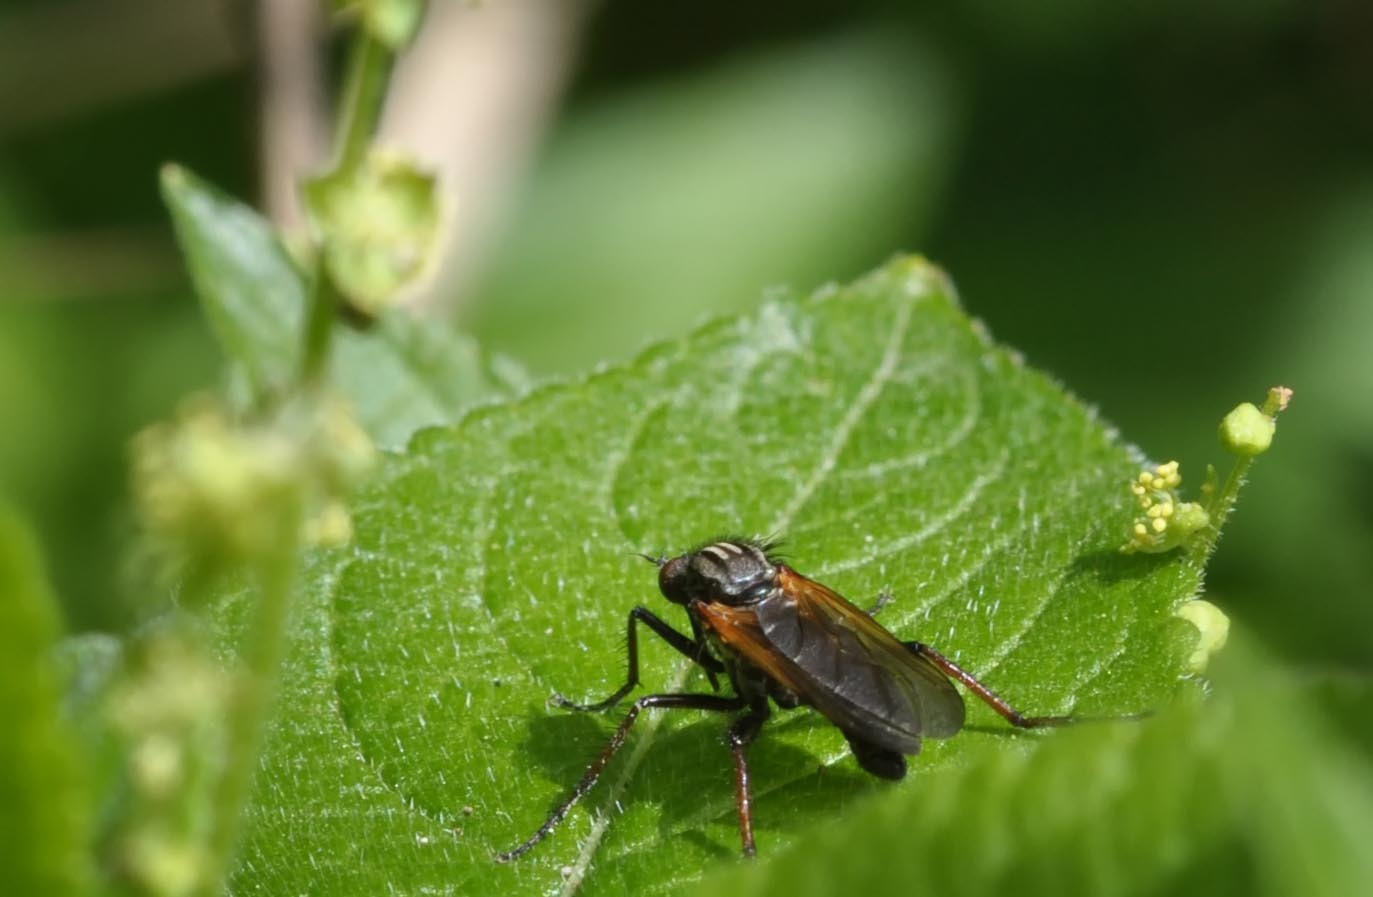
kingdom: Animalia
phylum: Arthropoda
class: Insecta
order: Diptera
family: Empididae
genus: Empis
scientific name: Empis tessellata
